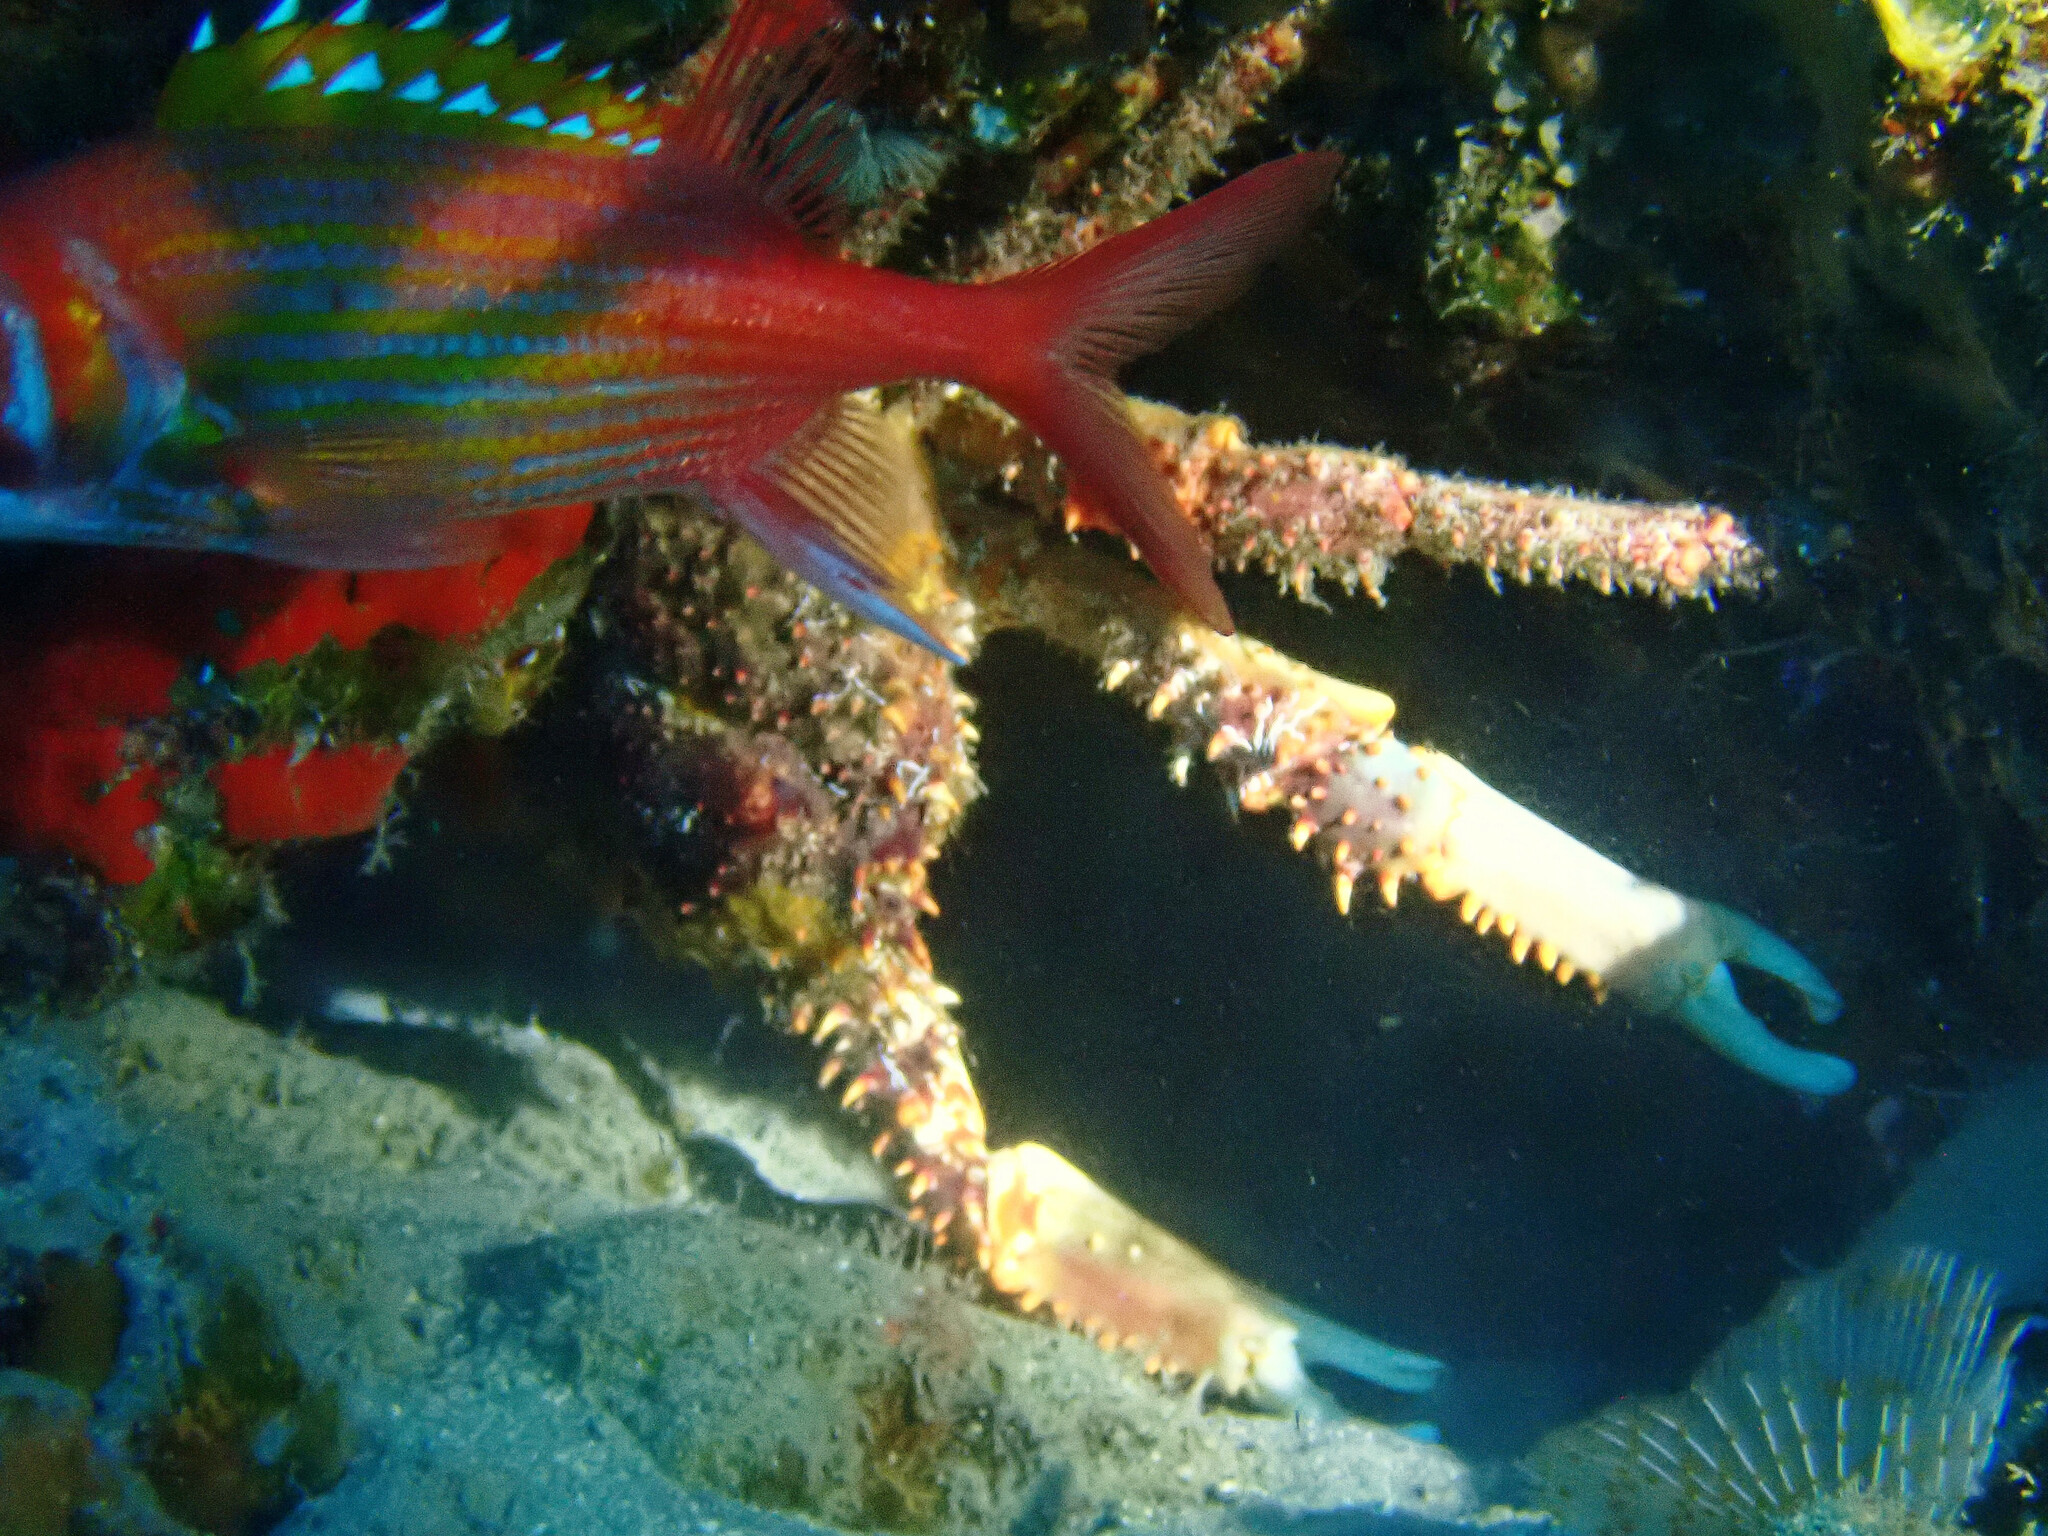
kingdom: Animalia
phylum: Arthropoda
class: Malacostraca
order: Decapoda
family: Mithracidae
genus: Maguimithrax
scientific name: Maguimithrax spinosissimus
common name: Spiny spider crab
